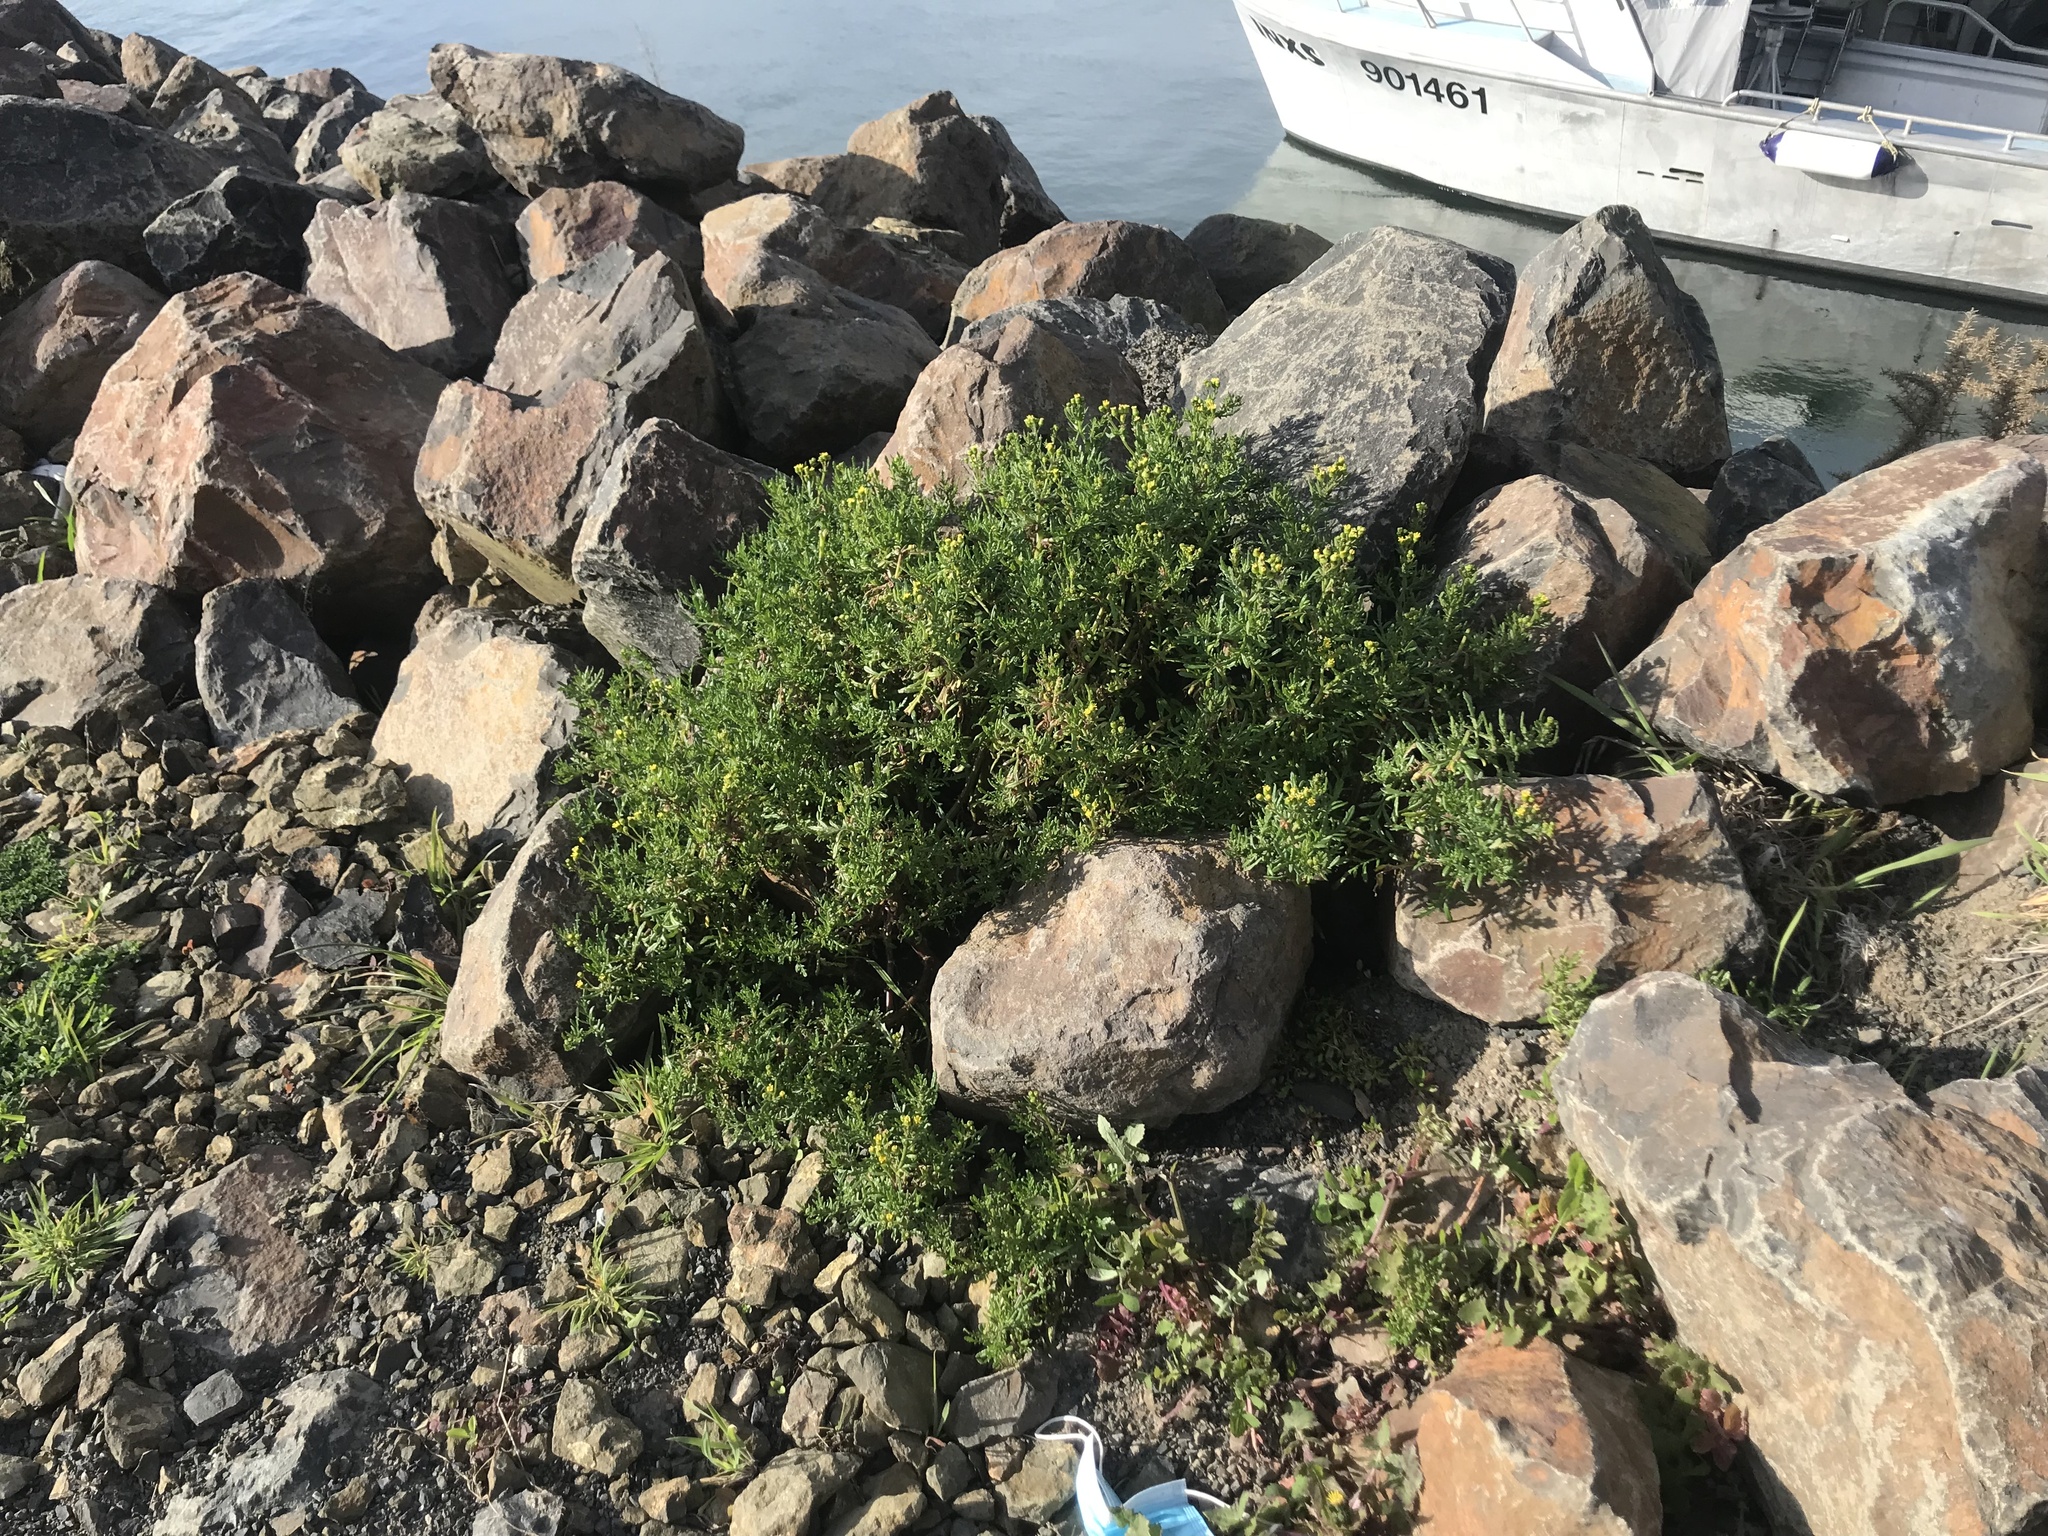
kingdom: Plantae
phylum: Tracheophyta
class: Magnoliopsida
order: Asterales
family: Asteraceae
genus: Senecio
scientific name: Senecio lautus
